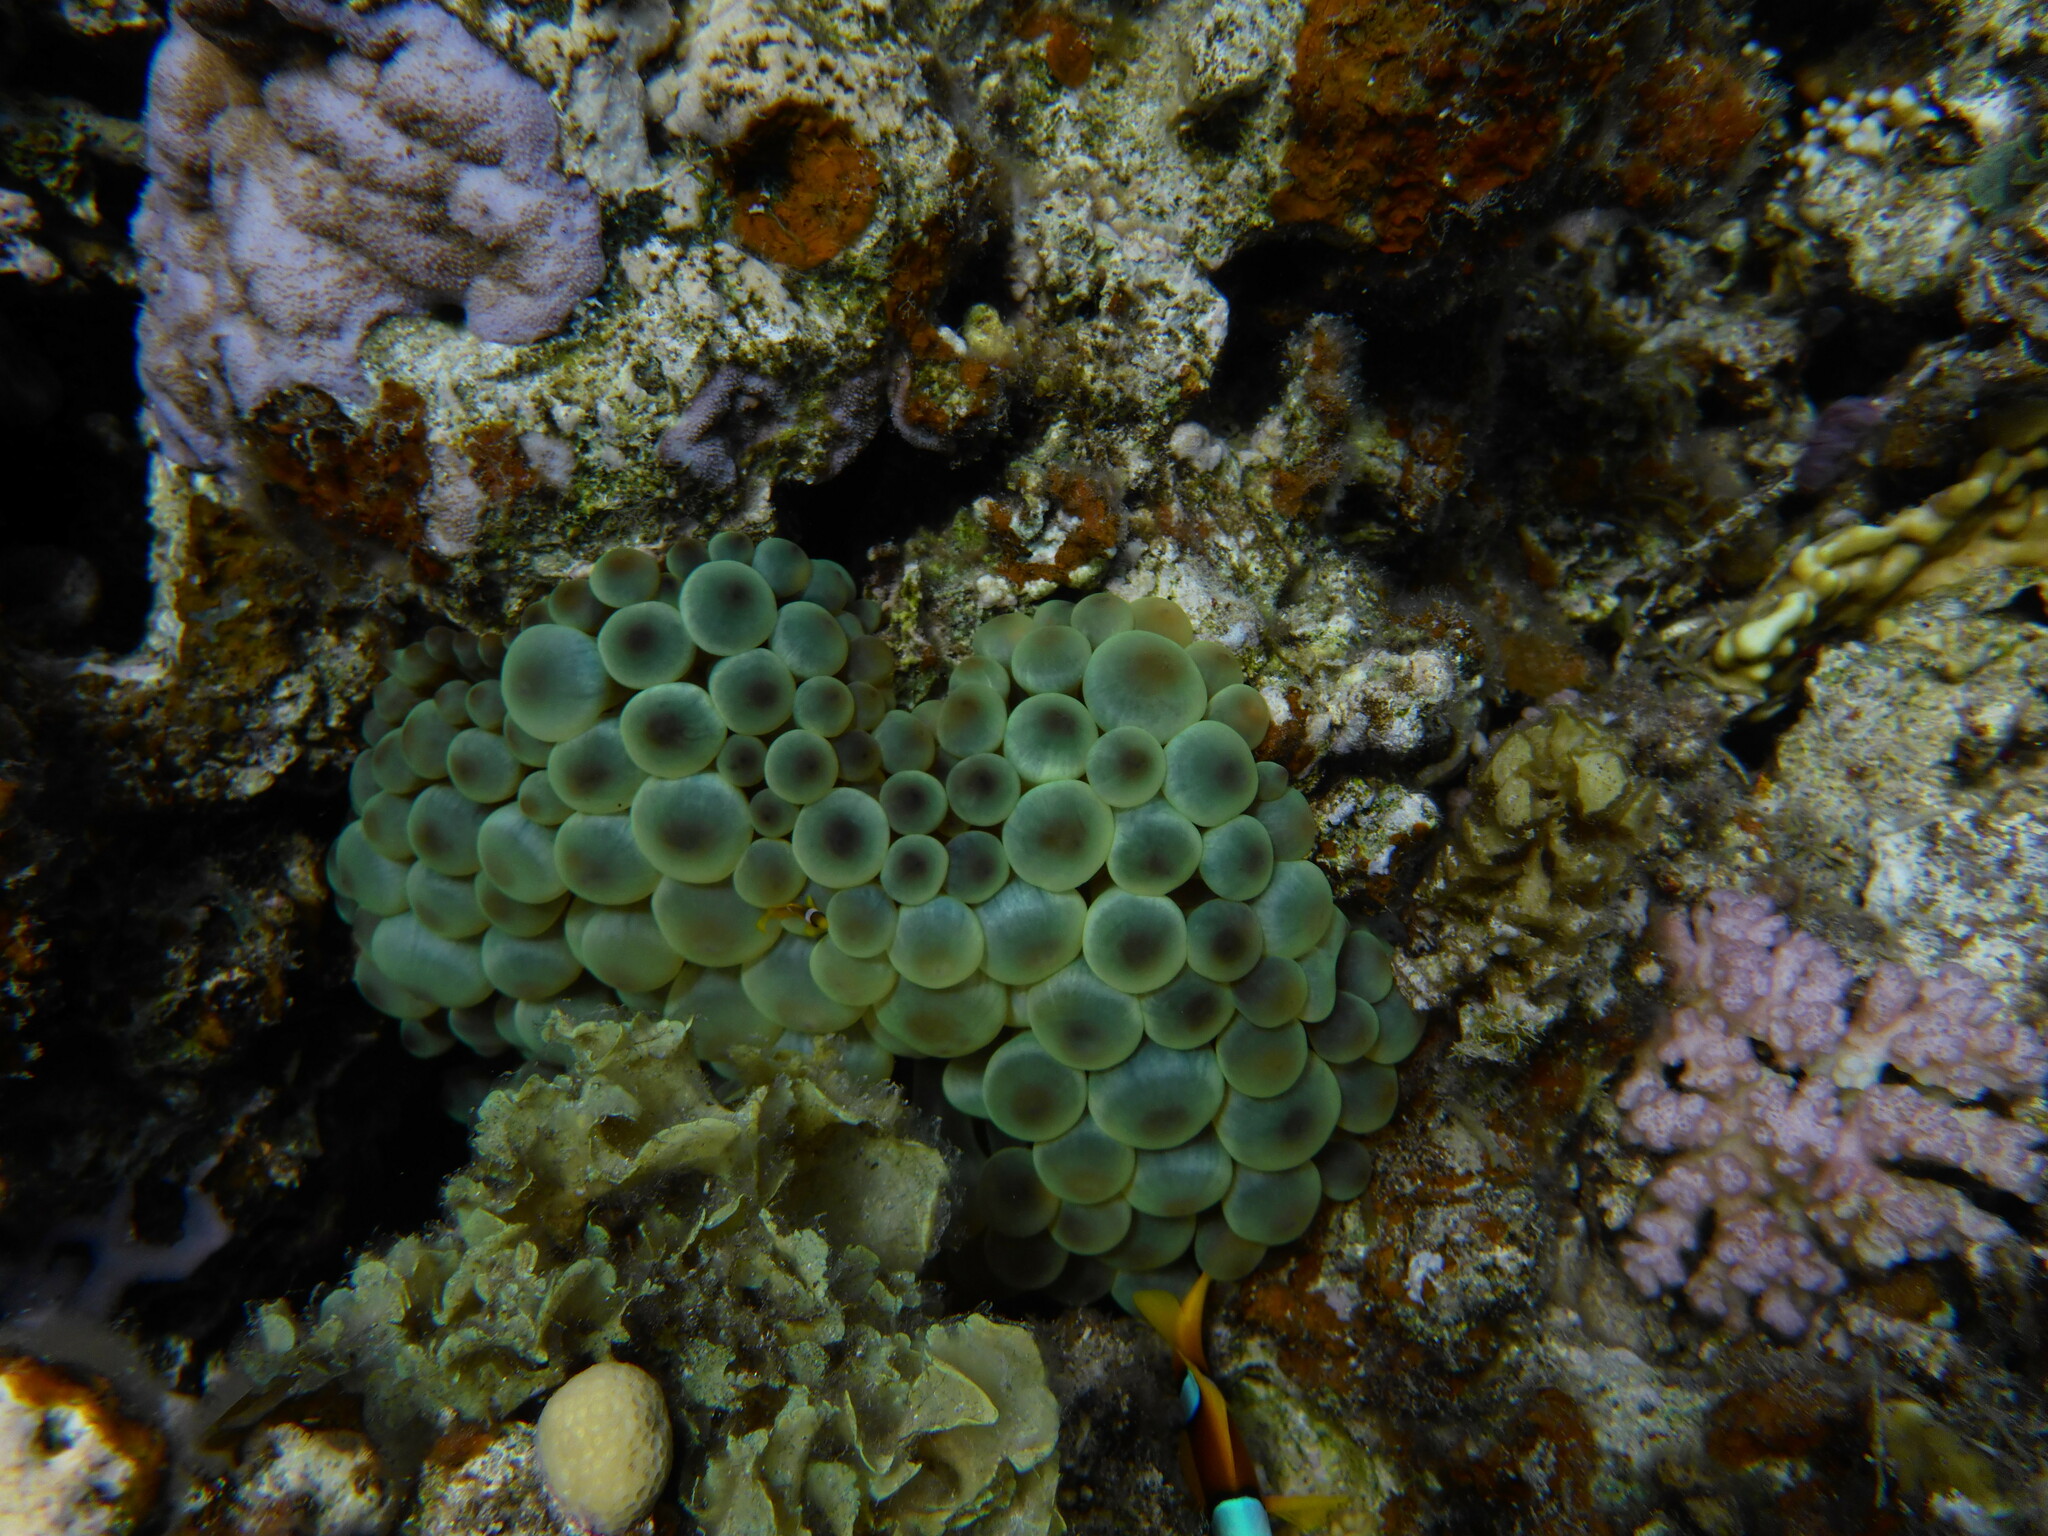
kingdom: Animalia
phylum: Cnidaria
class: Anthozoa
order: Actiniaria
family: Actiniidae
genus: Entacmaea
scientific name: Entacmaea quadricolor
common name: Bulb tentacle sea anemone
